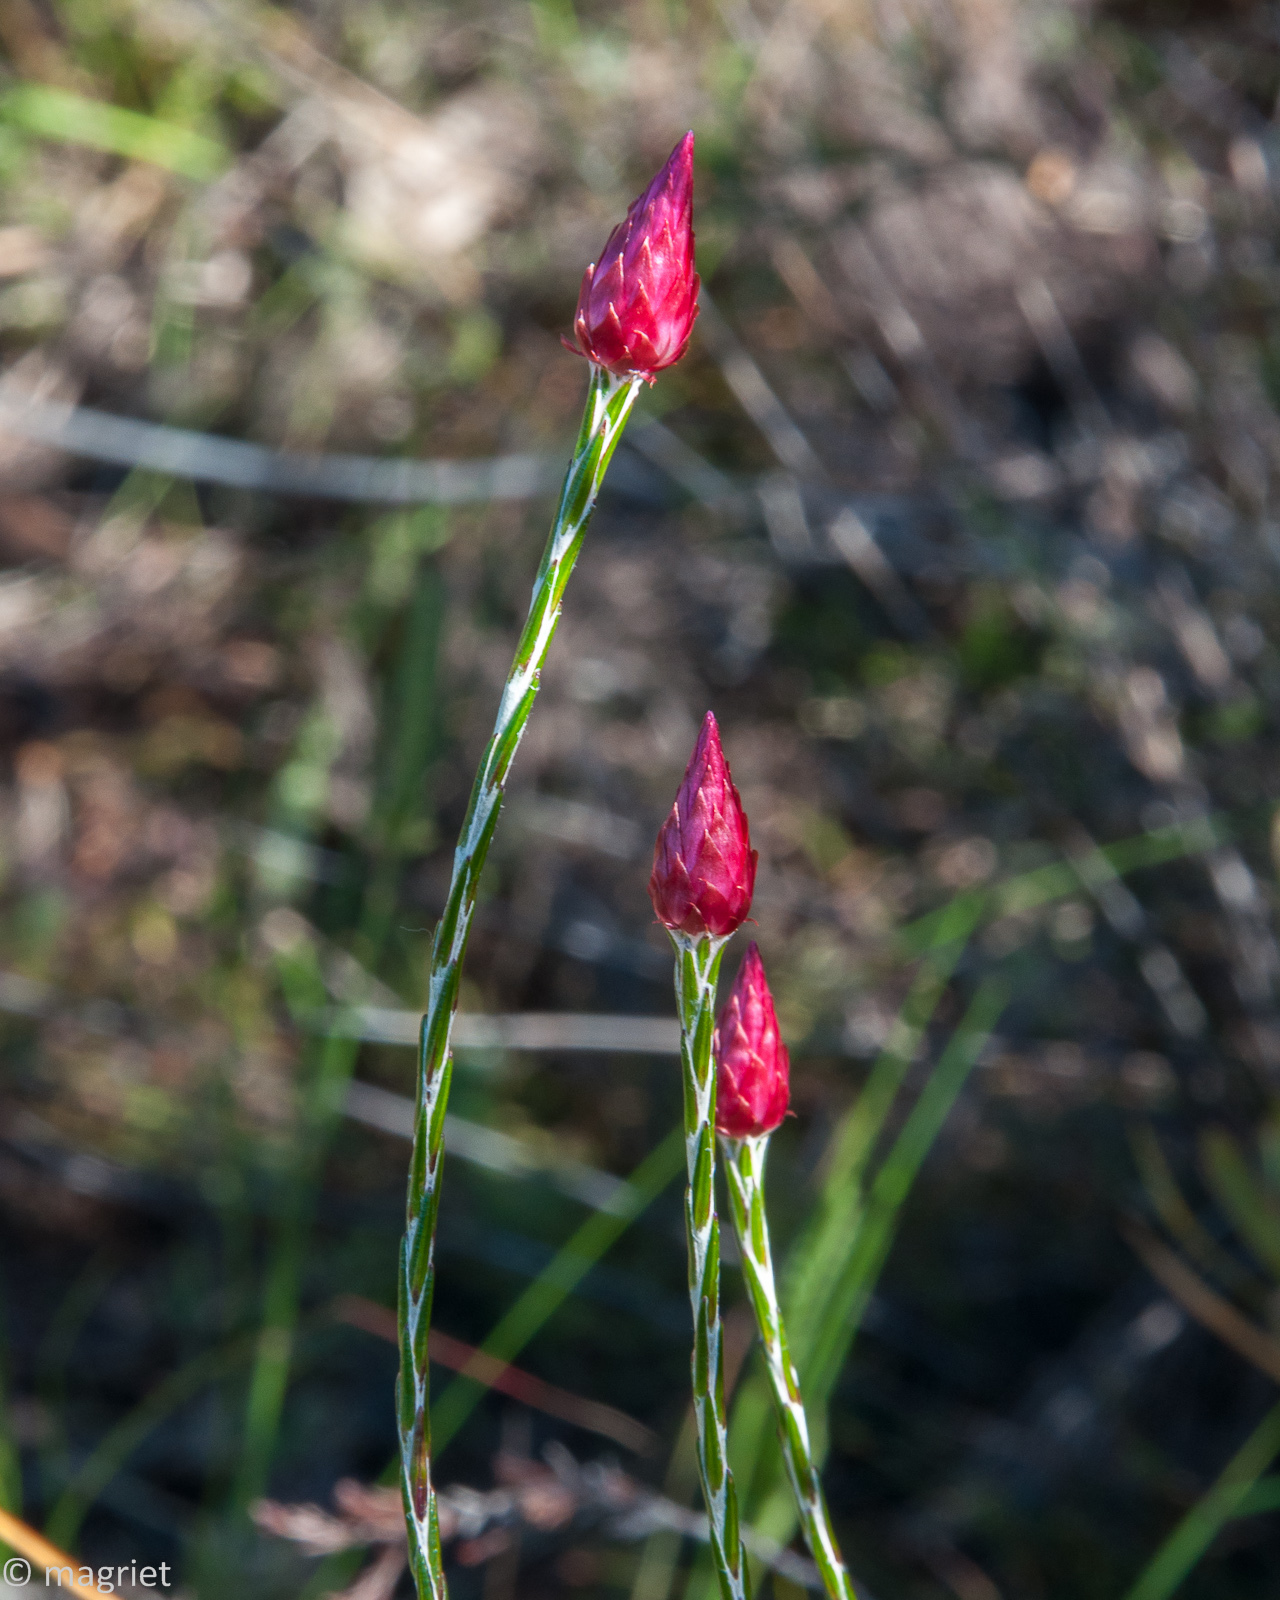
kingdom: Plantae
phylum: Tracheophyta
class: Magnoliopsida
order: Asterales
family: Asteraceae
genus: Edmondia
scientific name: Edmondia sesamoides
